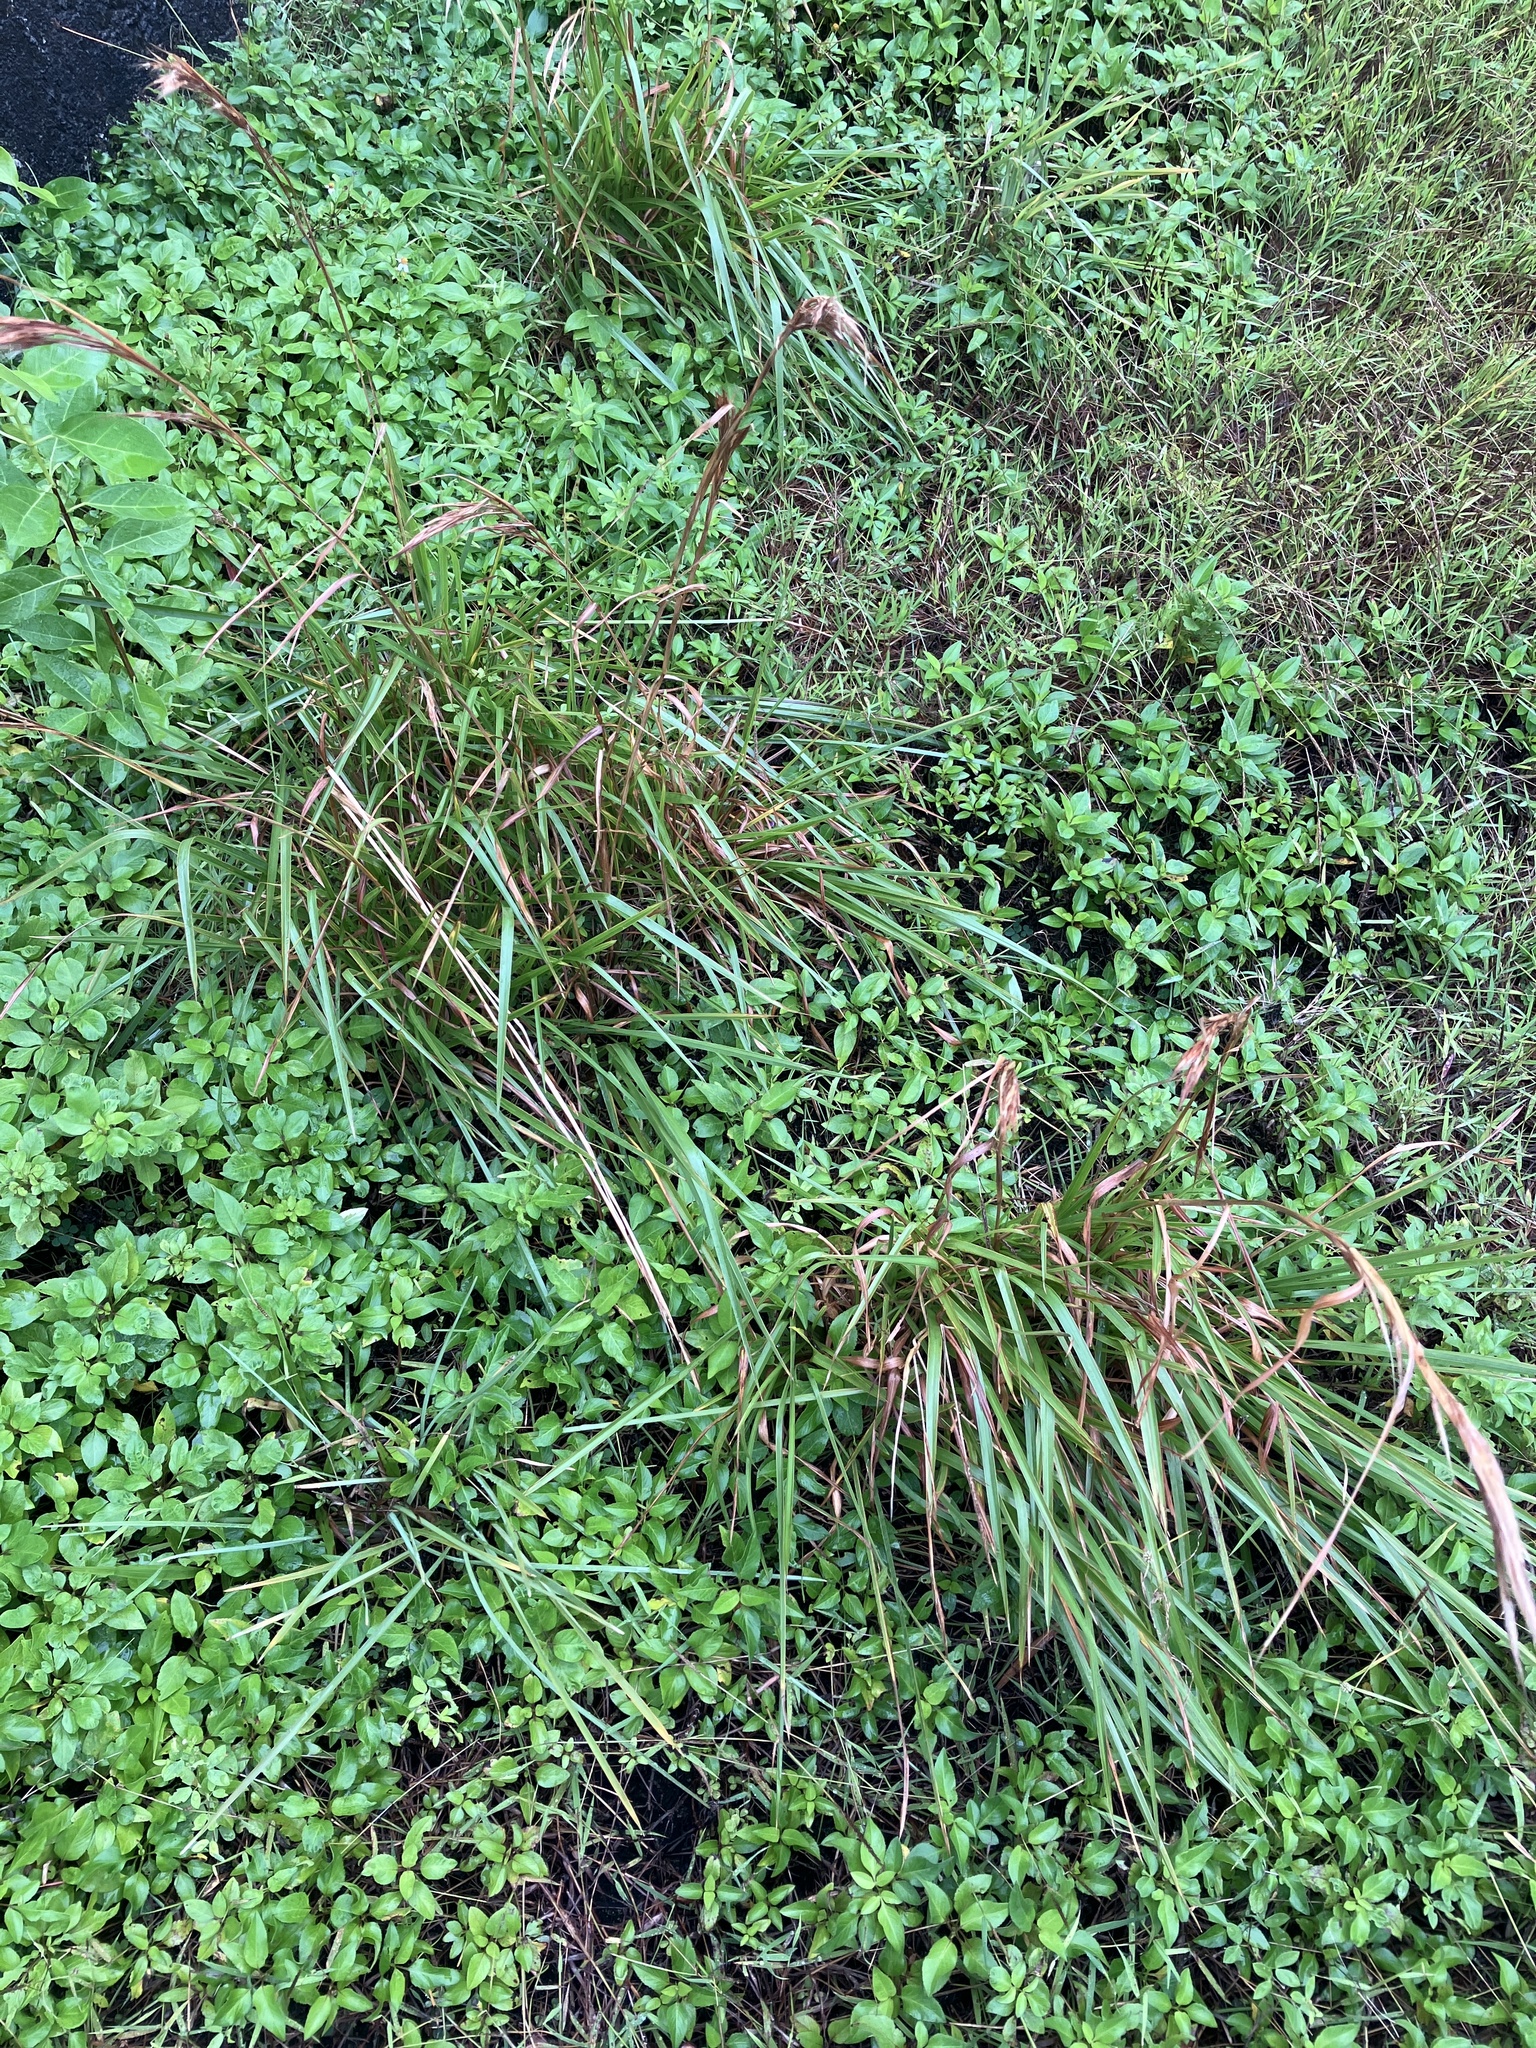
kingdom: Plantae
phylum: Tracheophyta
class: Liliopsida
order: Poales
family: Poaceae
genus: Andropogon
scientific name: Andropogon tenuispatheus
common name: Bushy bluestem
